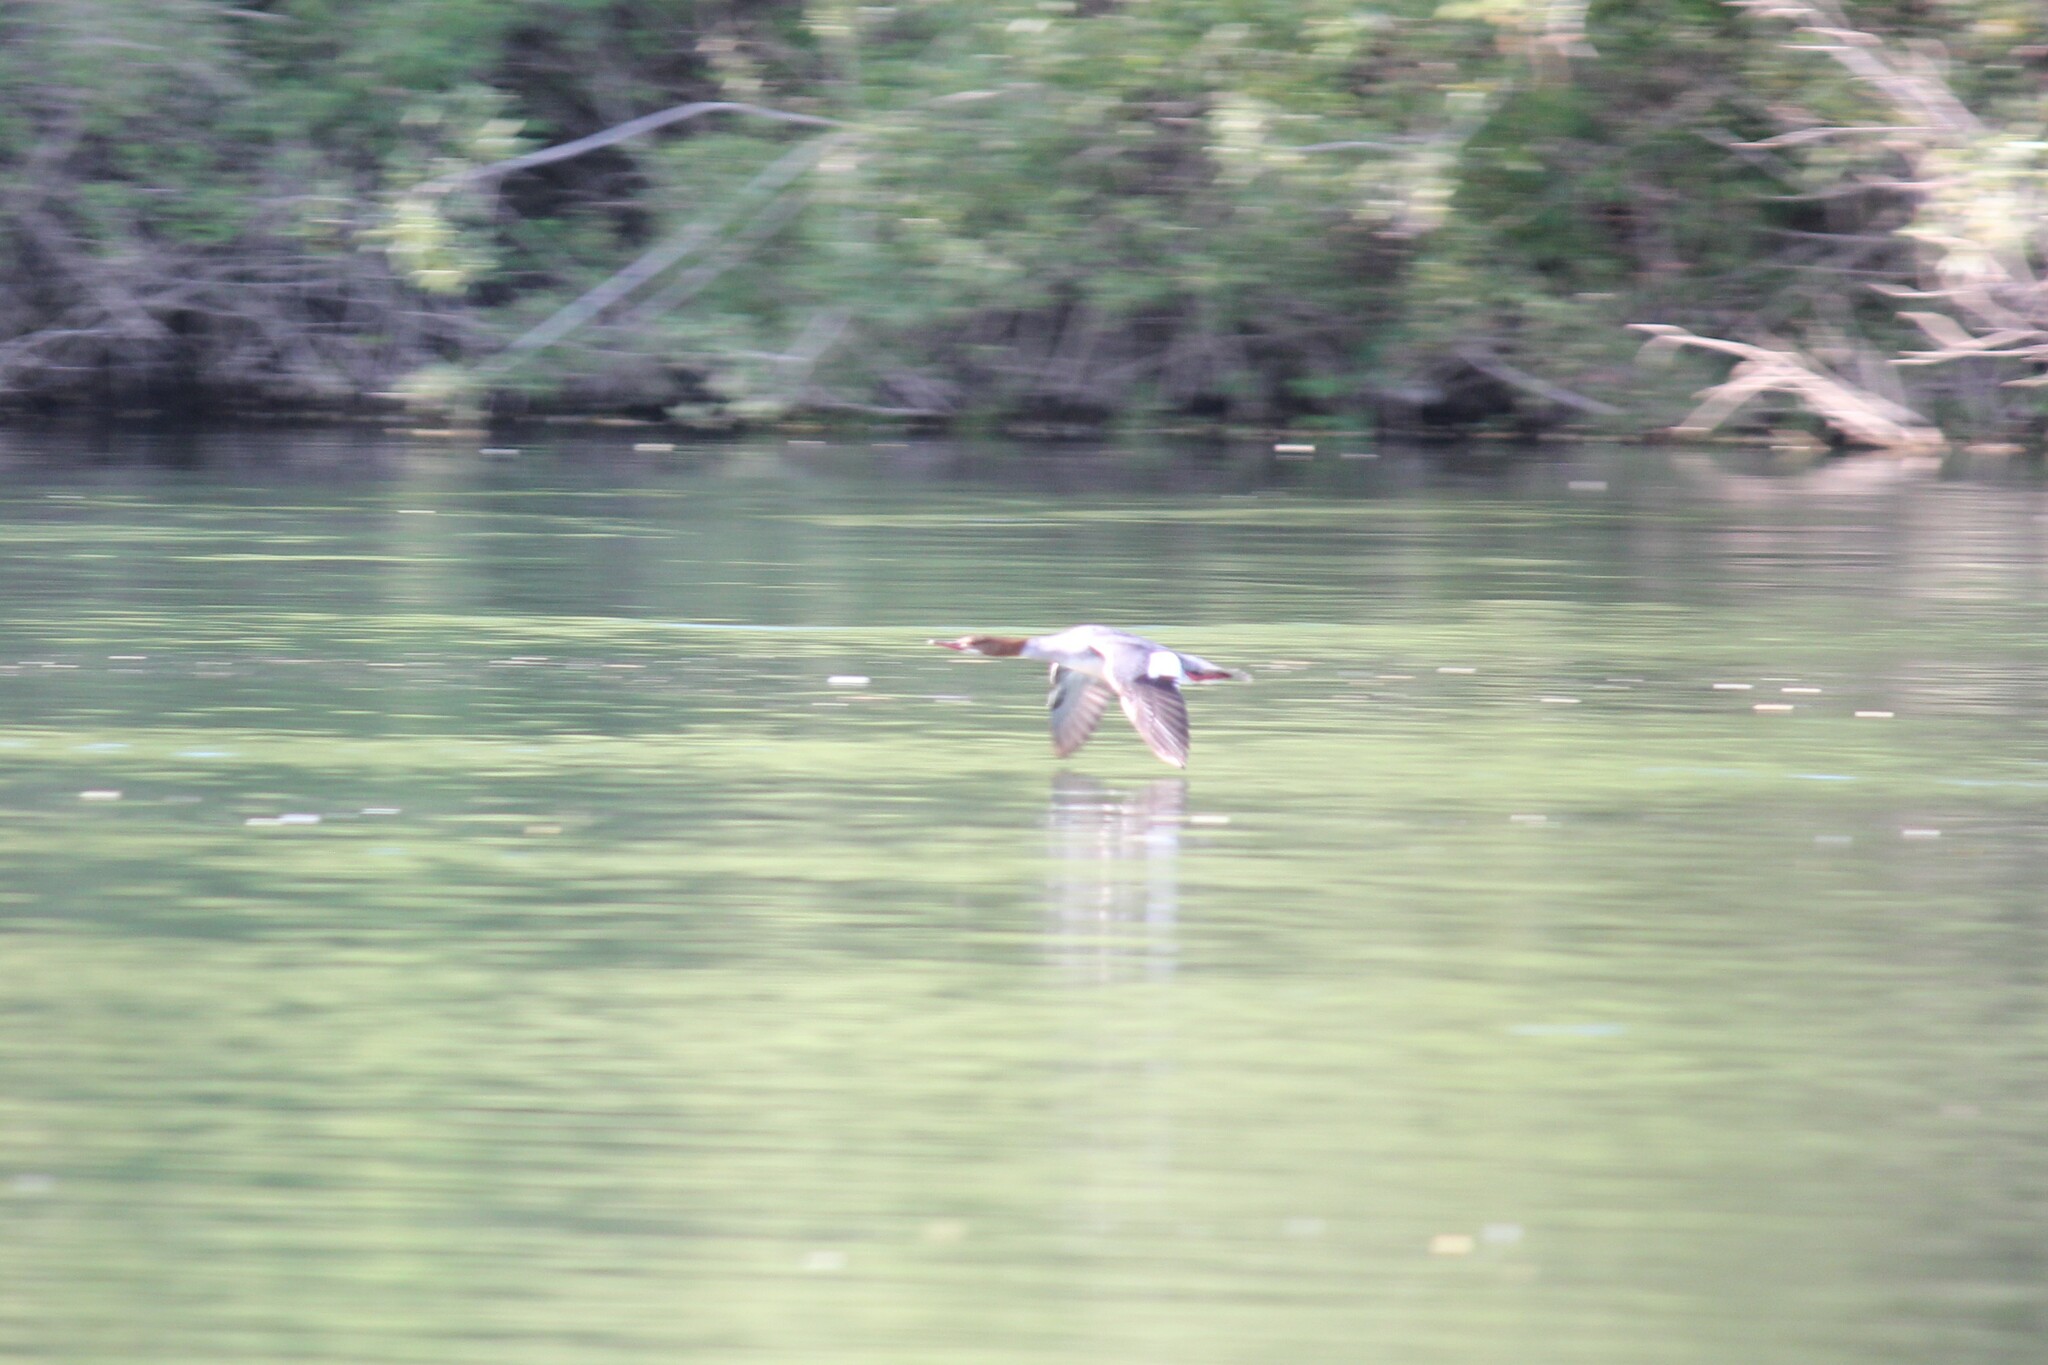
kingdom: Animalia
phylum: Chordata
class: Aves
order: Anseriformes
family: Anatidae
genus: Mergus
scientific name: Mergus merganser
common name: Common merganser
